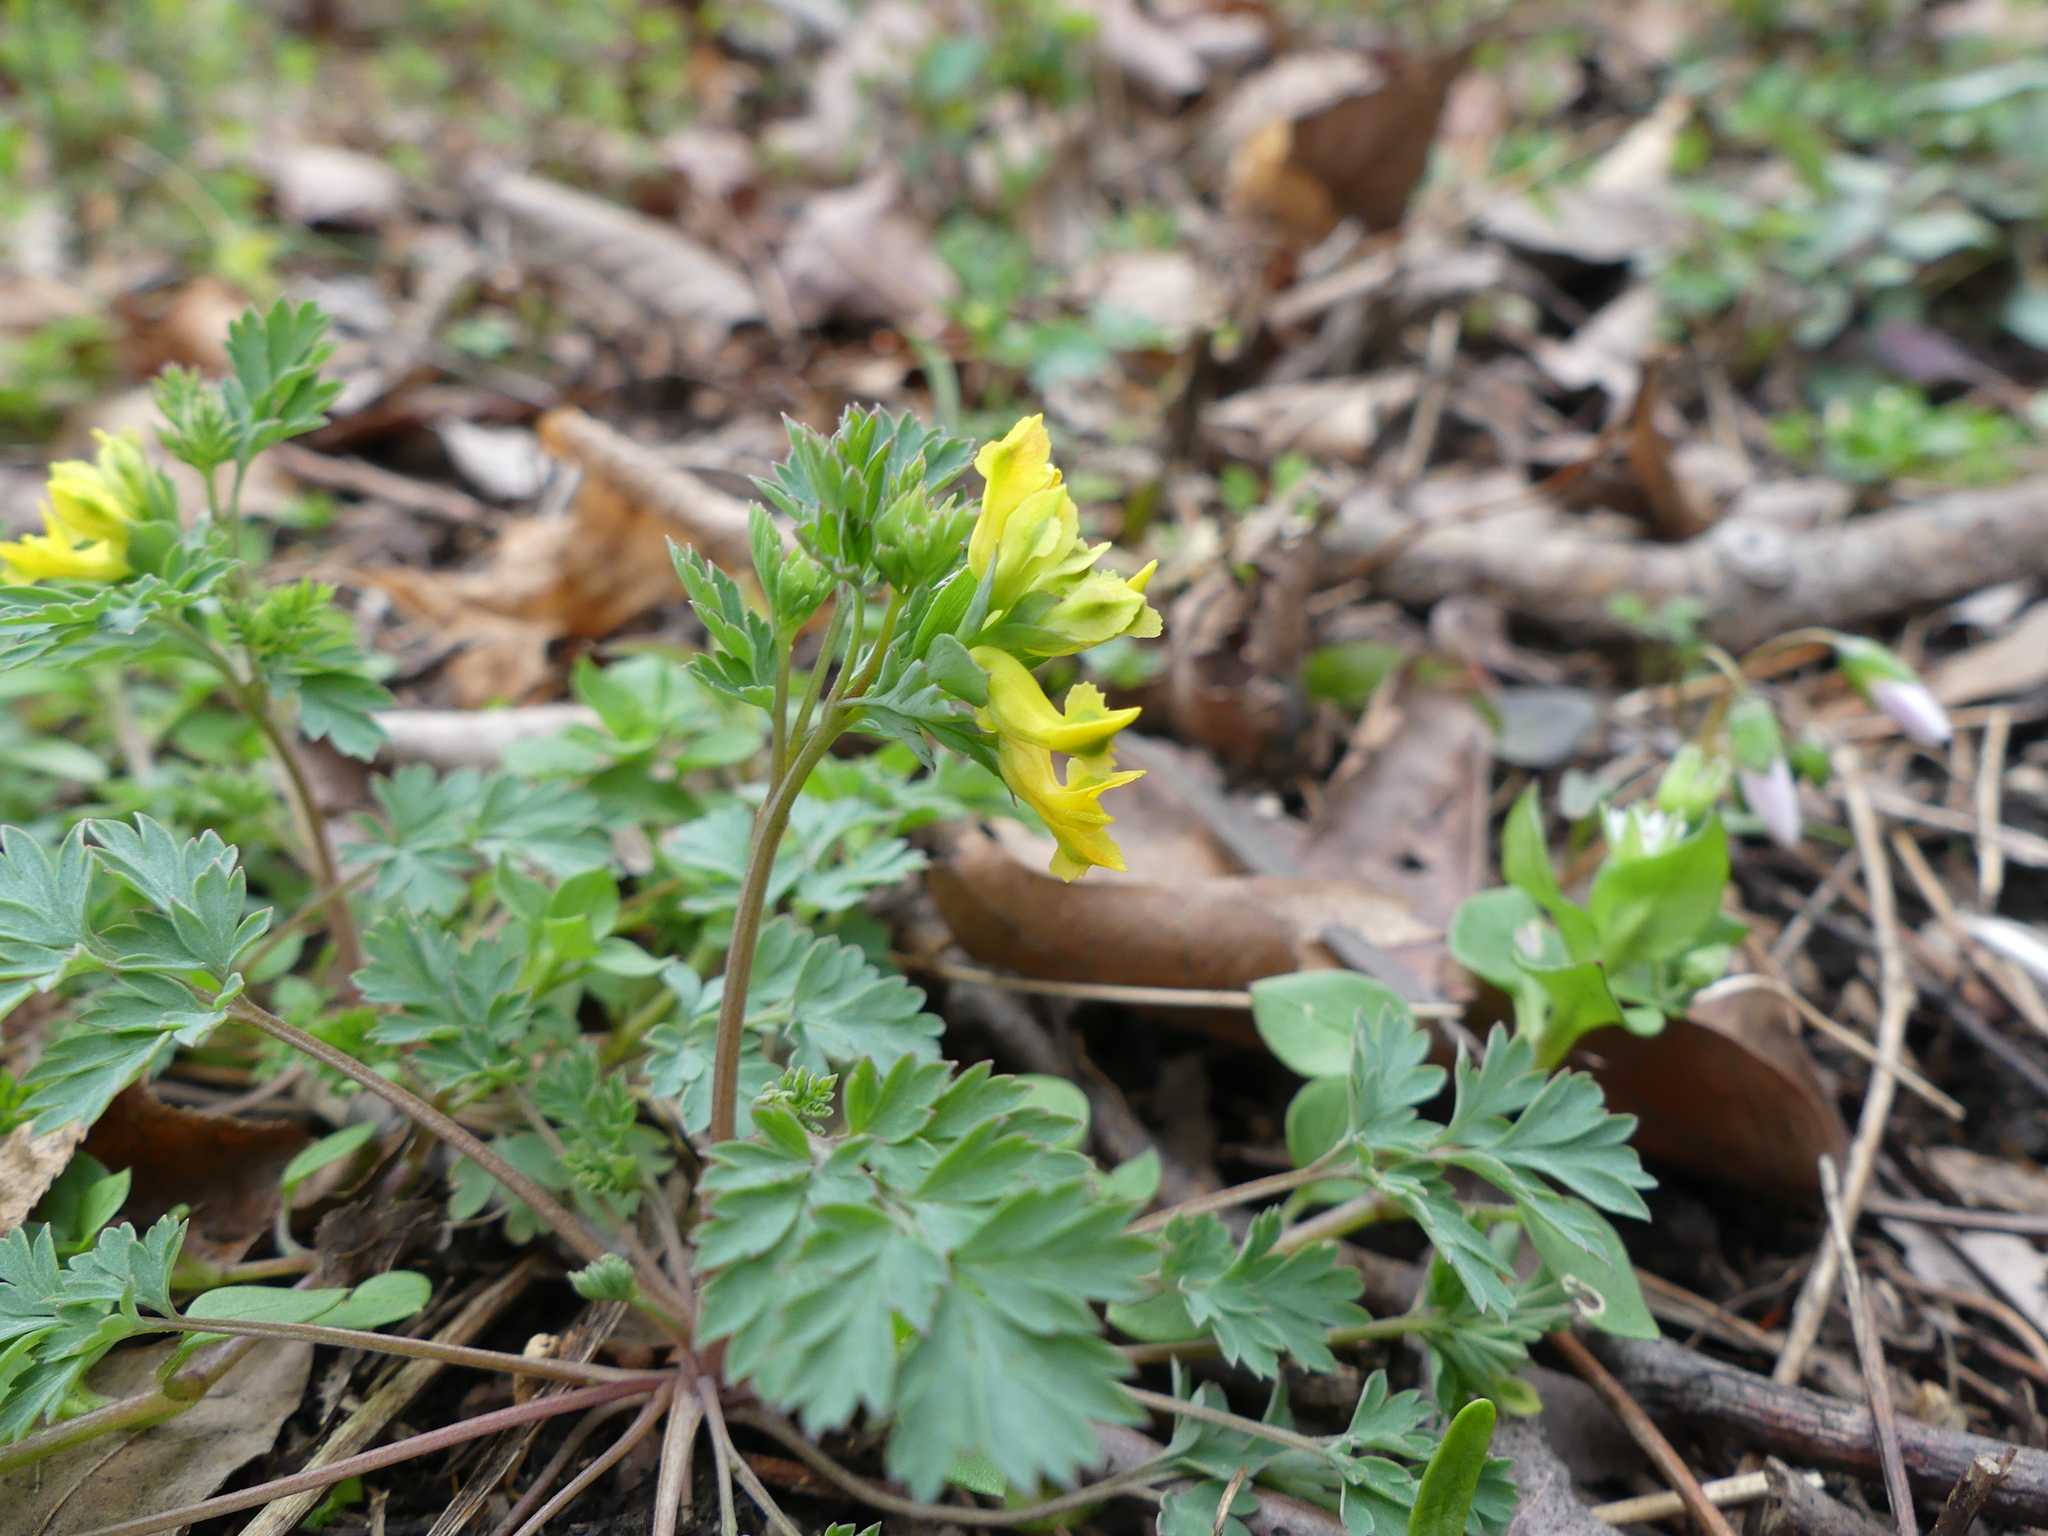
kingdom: Plantae
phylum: Tracheophyta
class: Magnoliopsida
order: Ranunculales
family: Papaveraceae
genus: Corydalis
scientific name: Corydalis flavula
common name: Yellow corydalis
